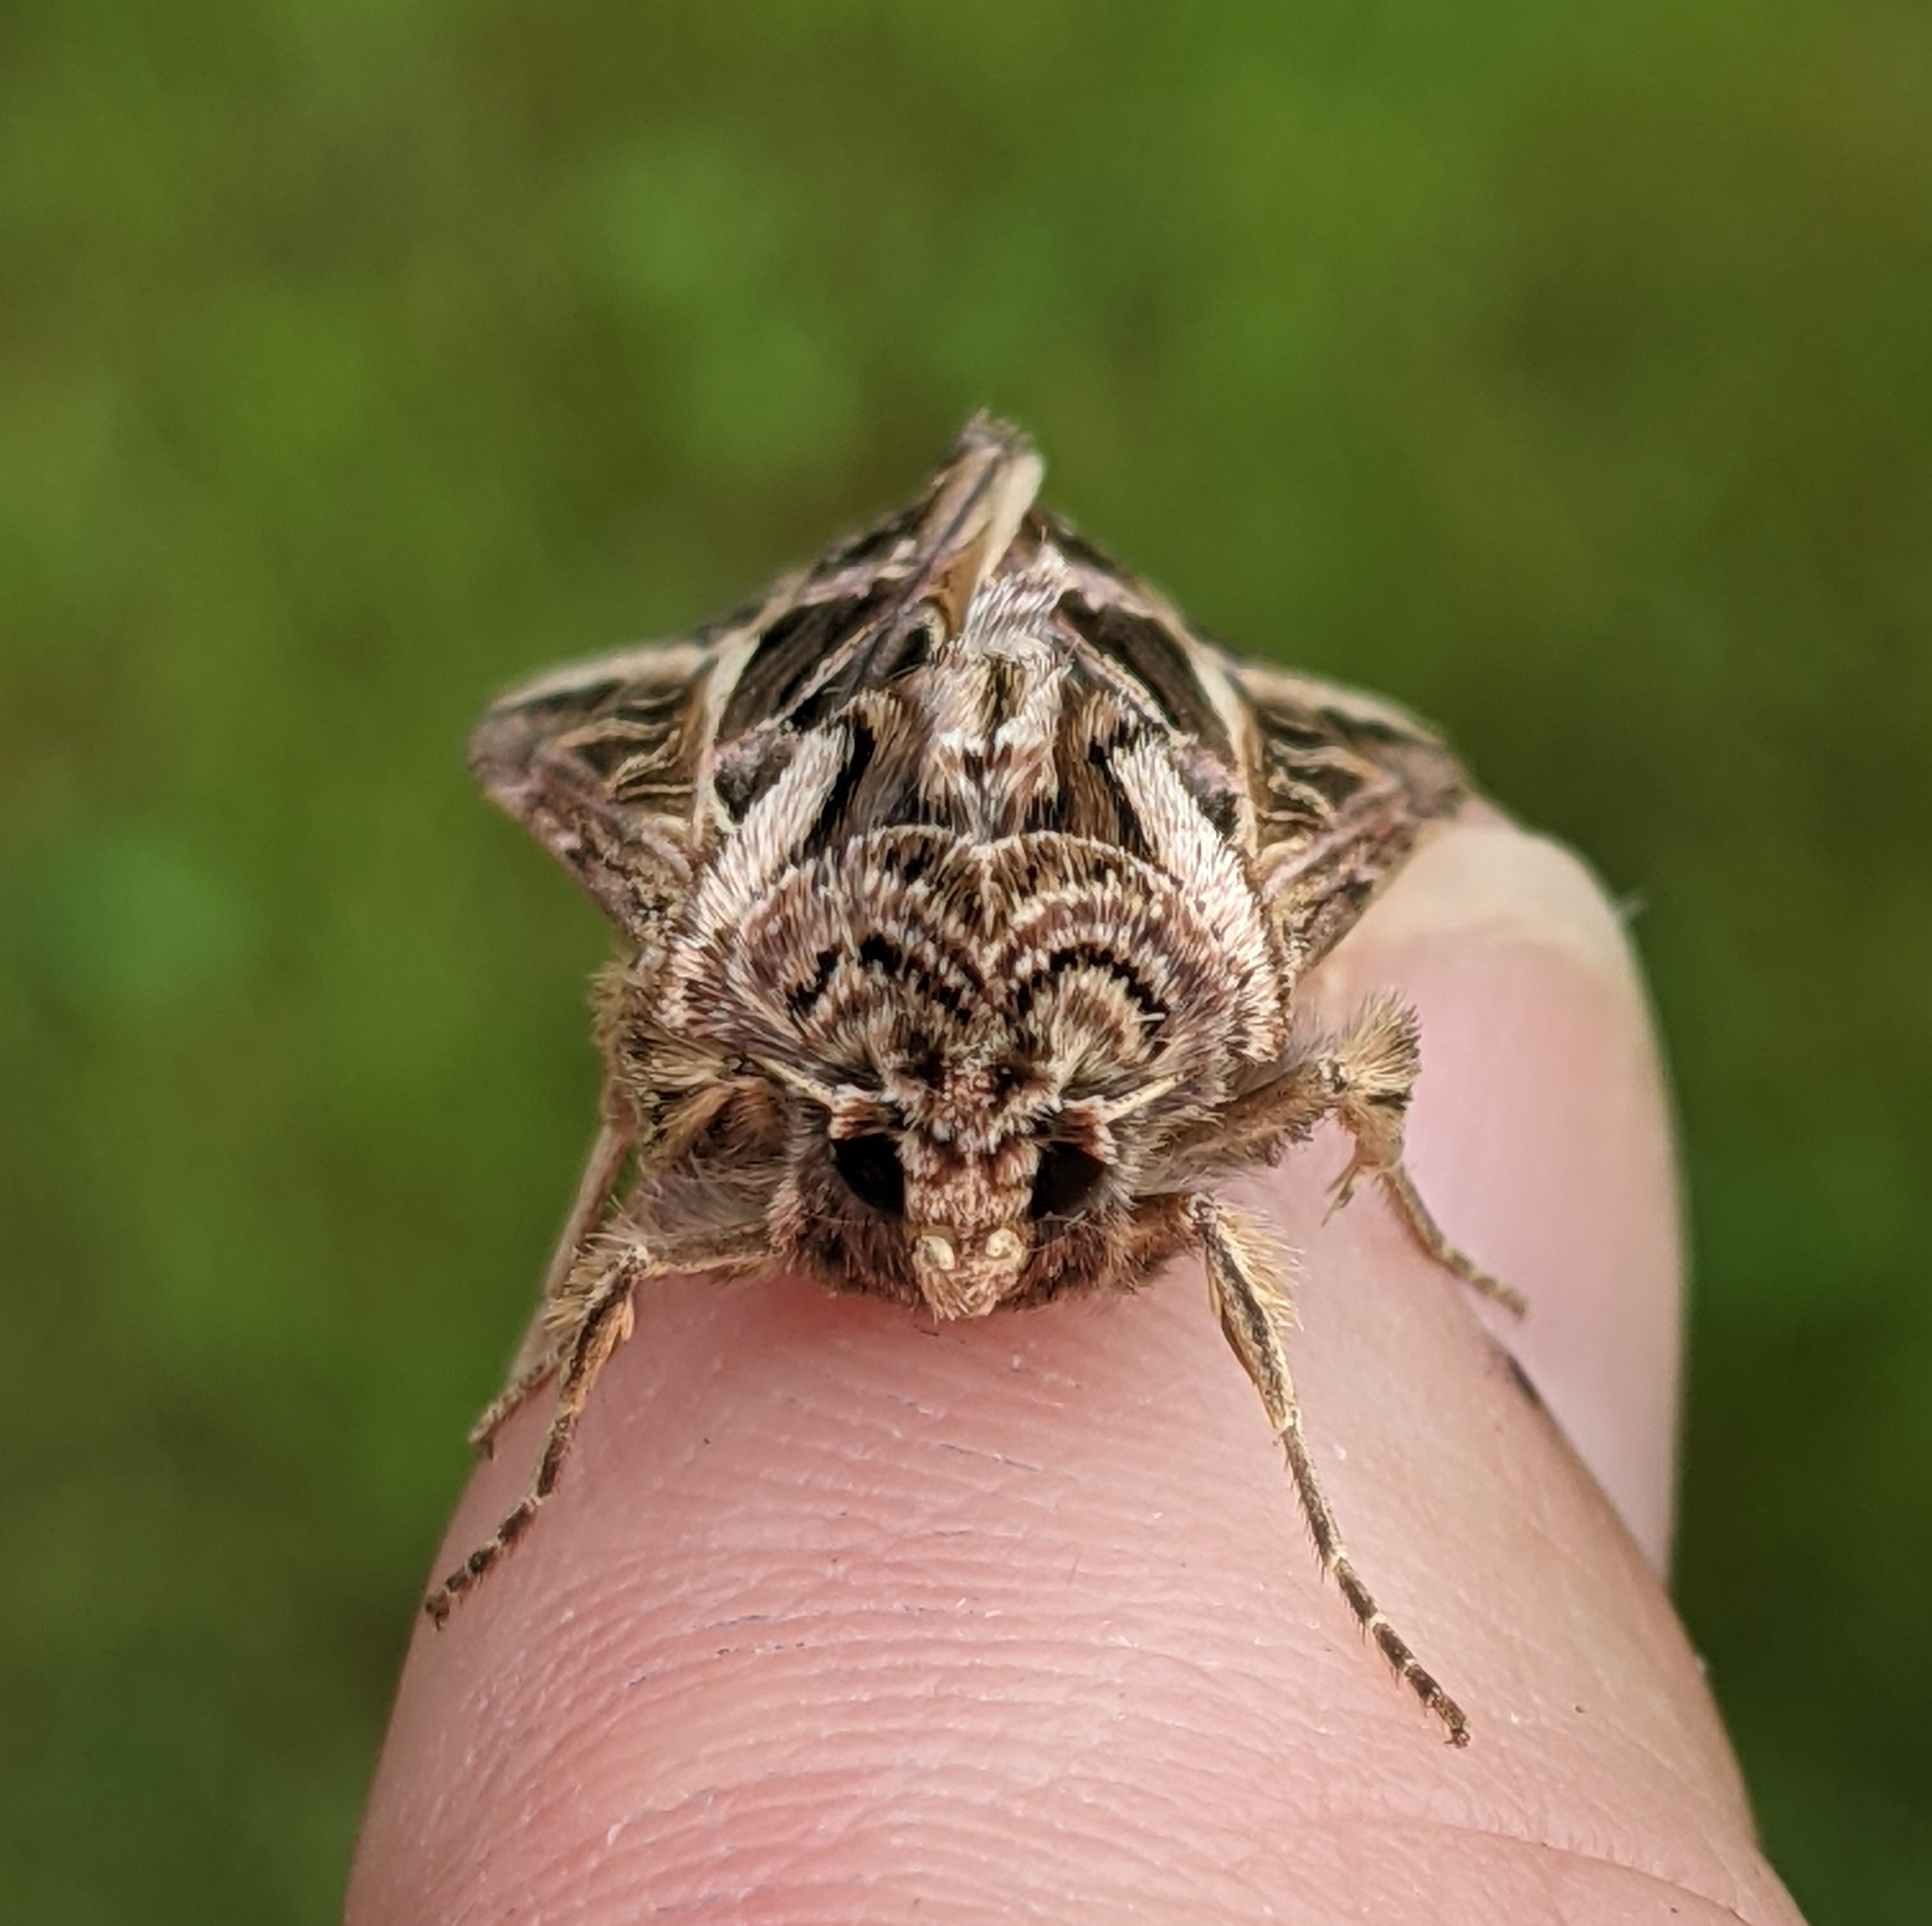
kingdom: Animalia
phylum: Arthropoda
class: Insecta
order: Lepidoptera
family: Noctuidae
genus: Dargida
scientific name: Dargida procinctus
